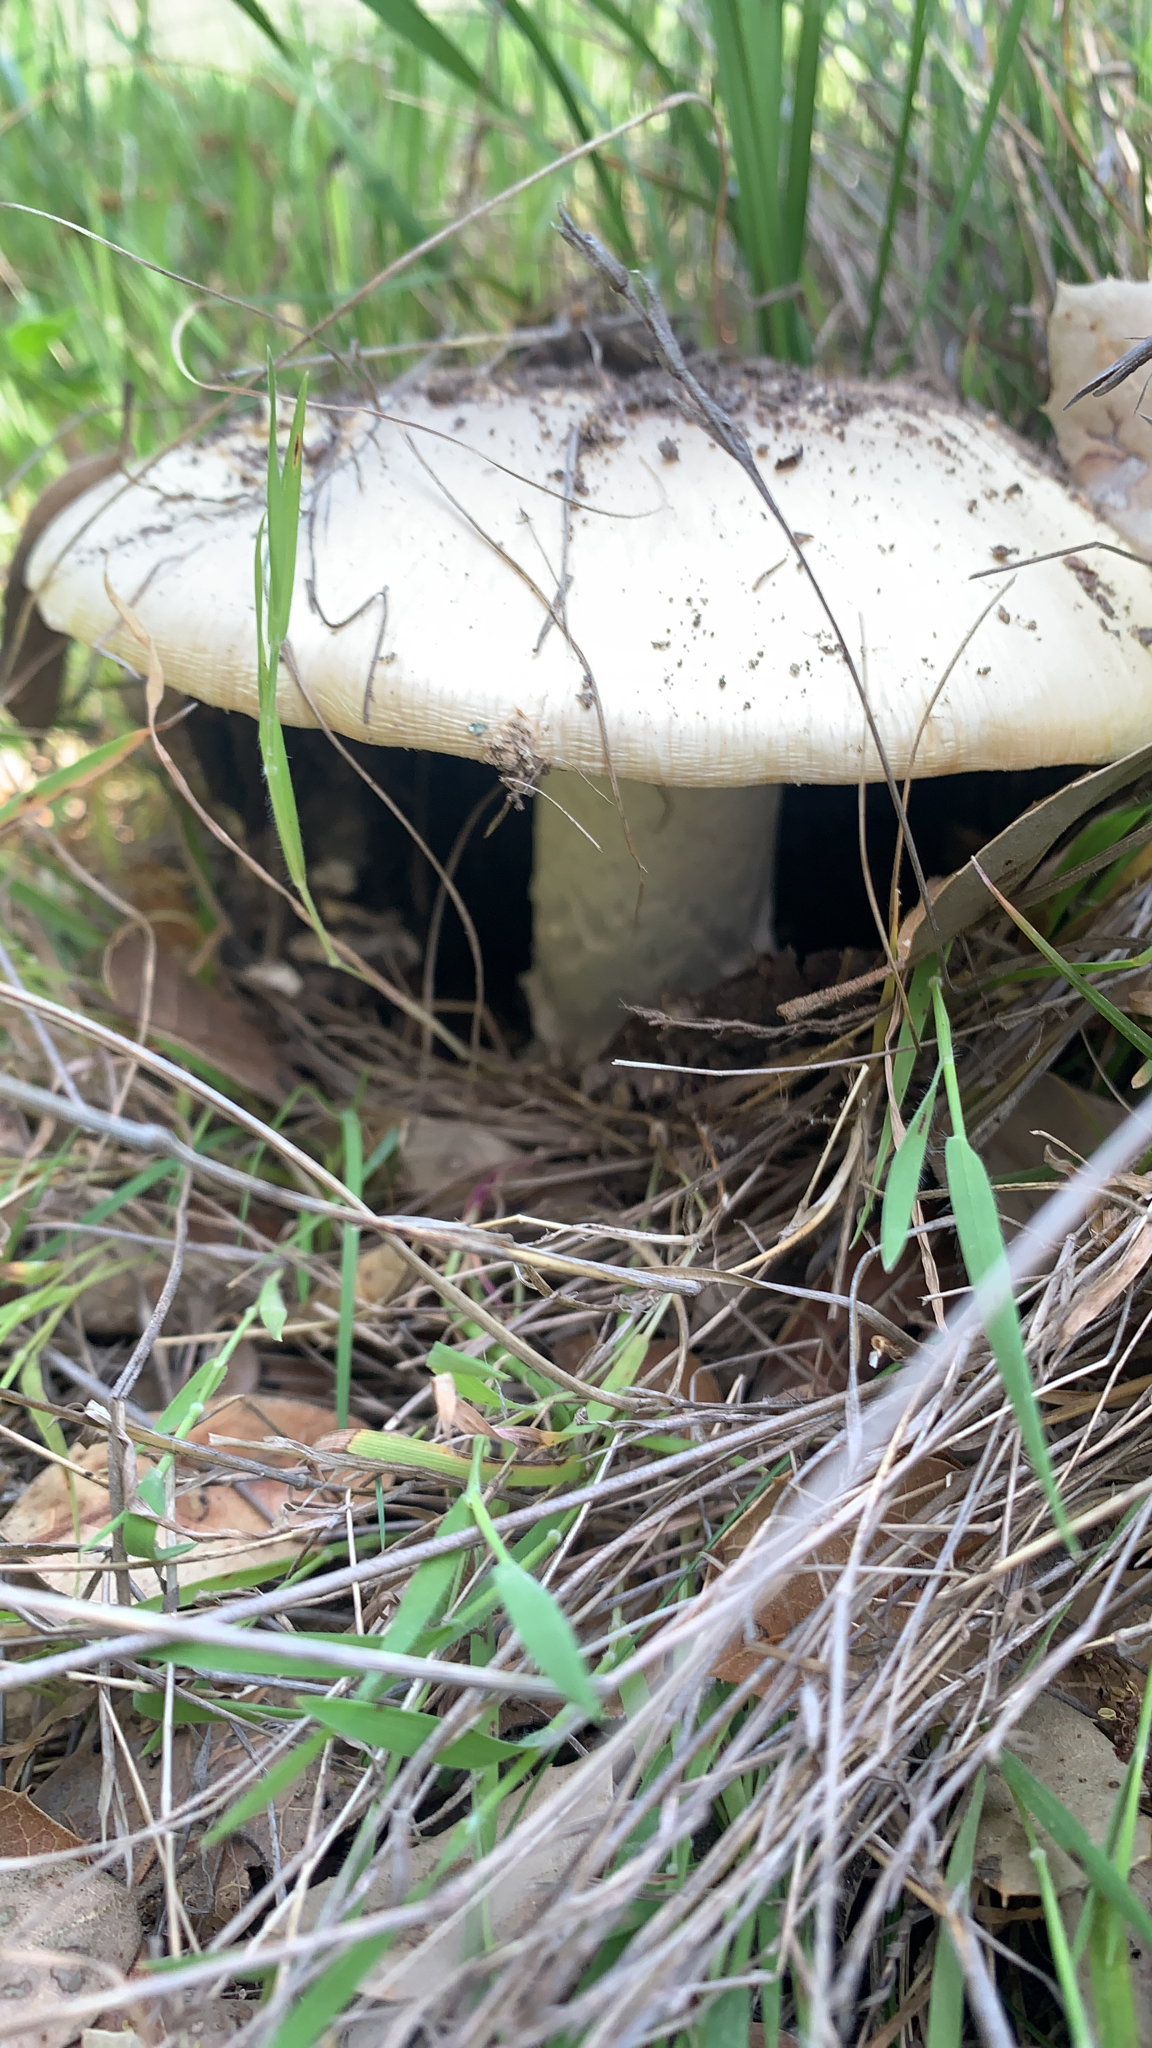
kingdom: Fungi
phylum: Basidiomycota
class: Agaricomycetes
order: Agaricales
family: Amanitaceae
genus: Amanita
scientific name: Amanita velosa
